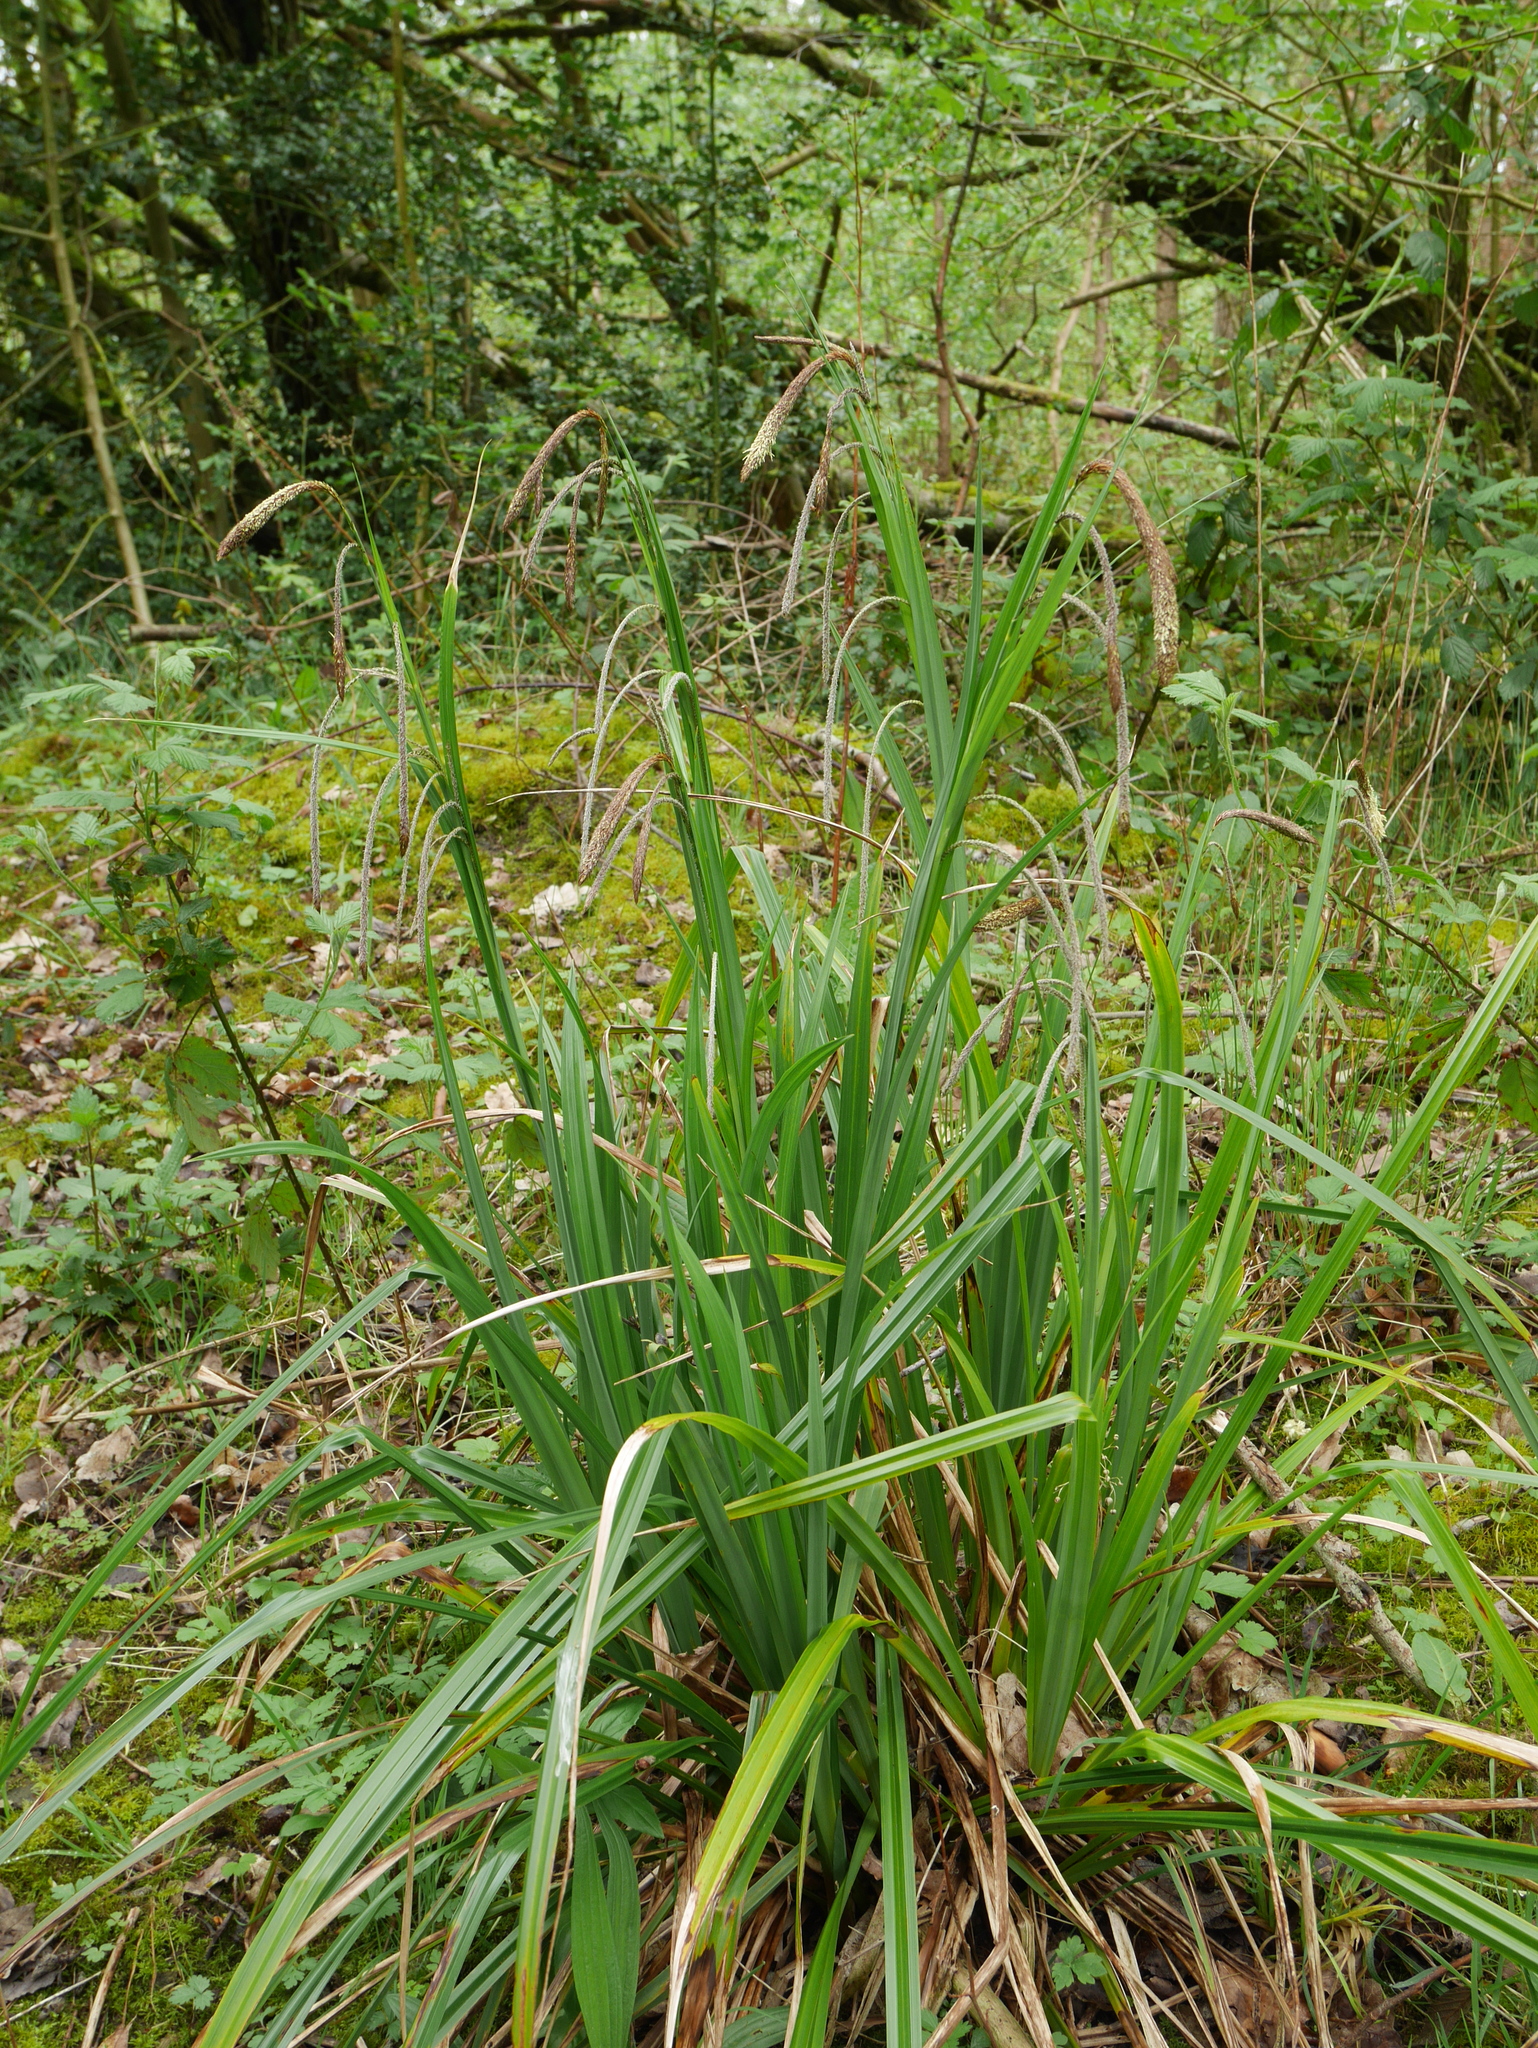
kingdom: Plantae
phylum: Tracheophyta
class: Liliopsida
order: Poales
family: Cyperaceae
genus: Carex
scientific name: Carex pendula
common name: Pendulous sedge
